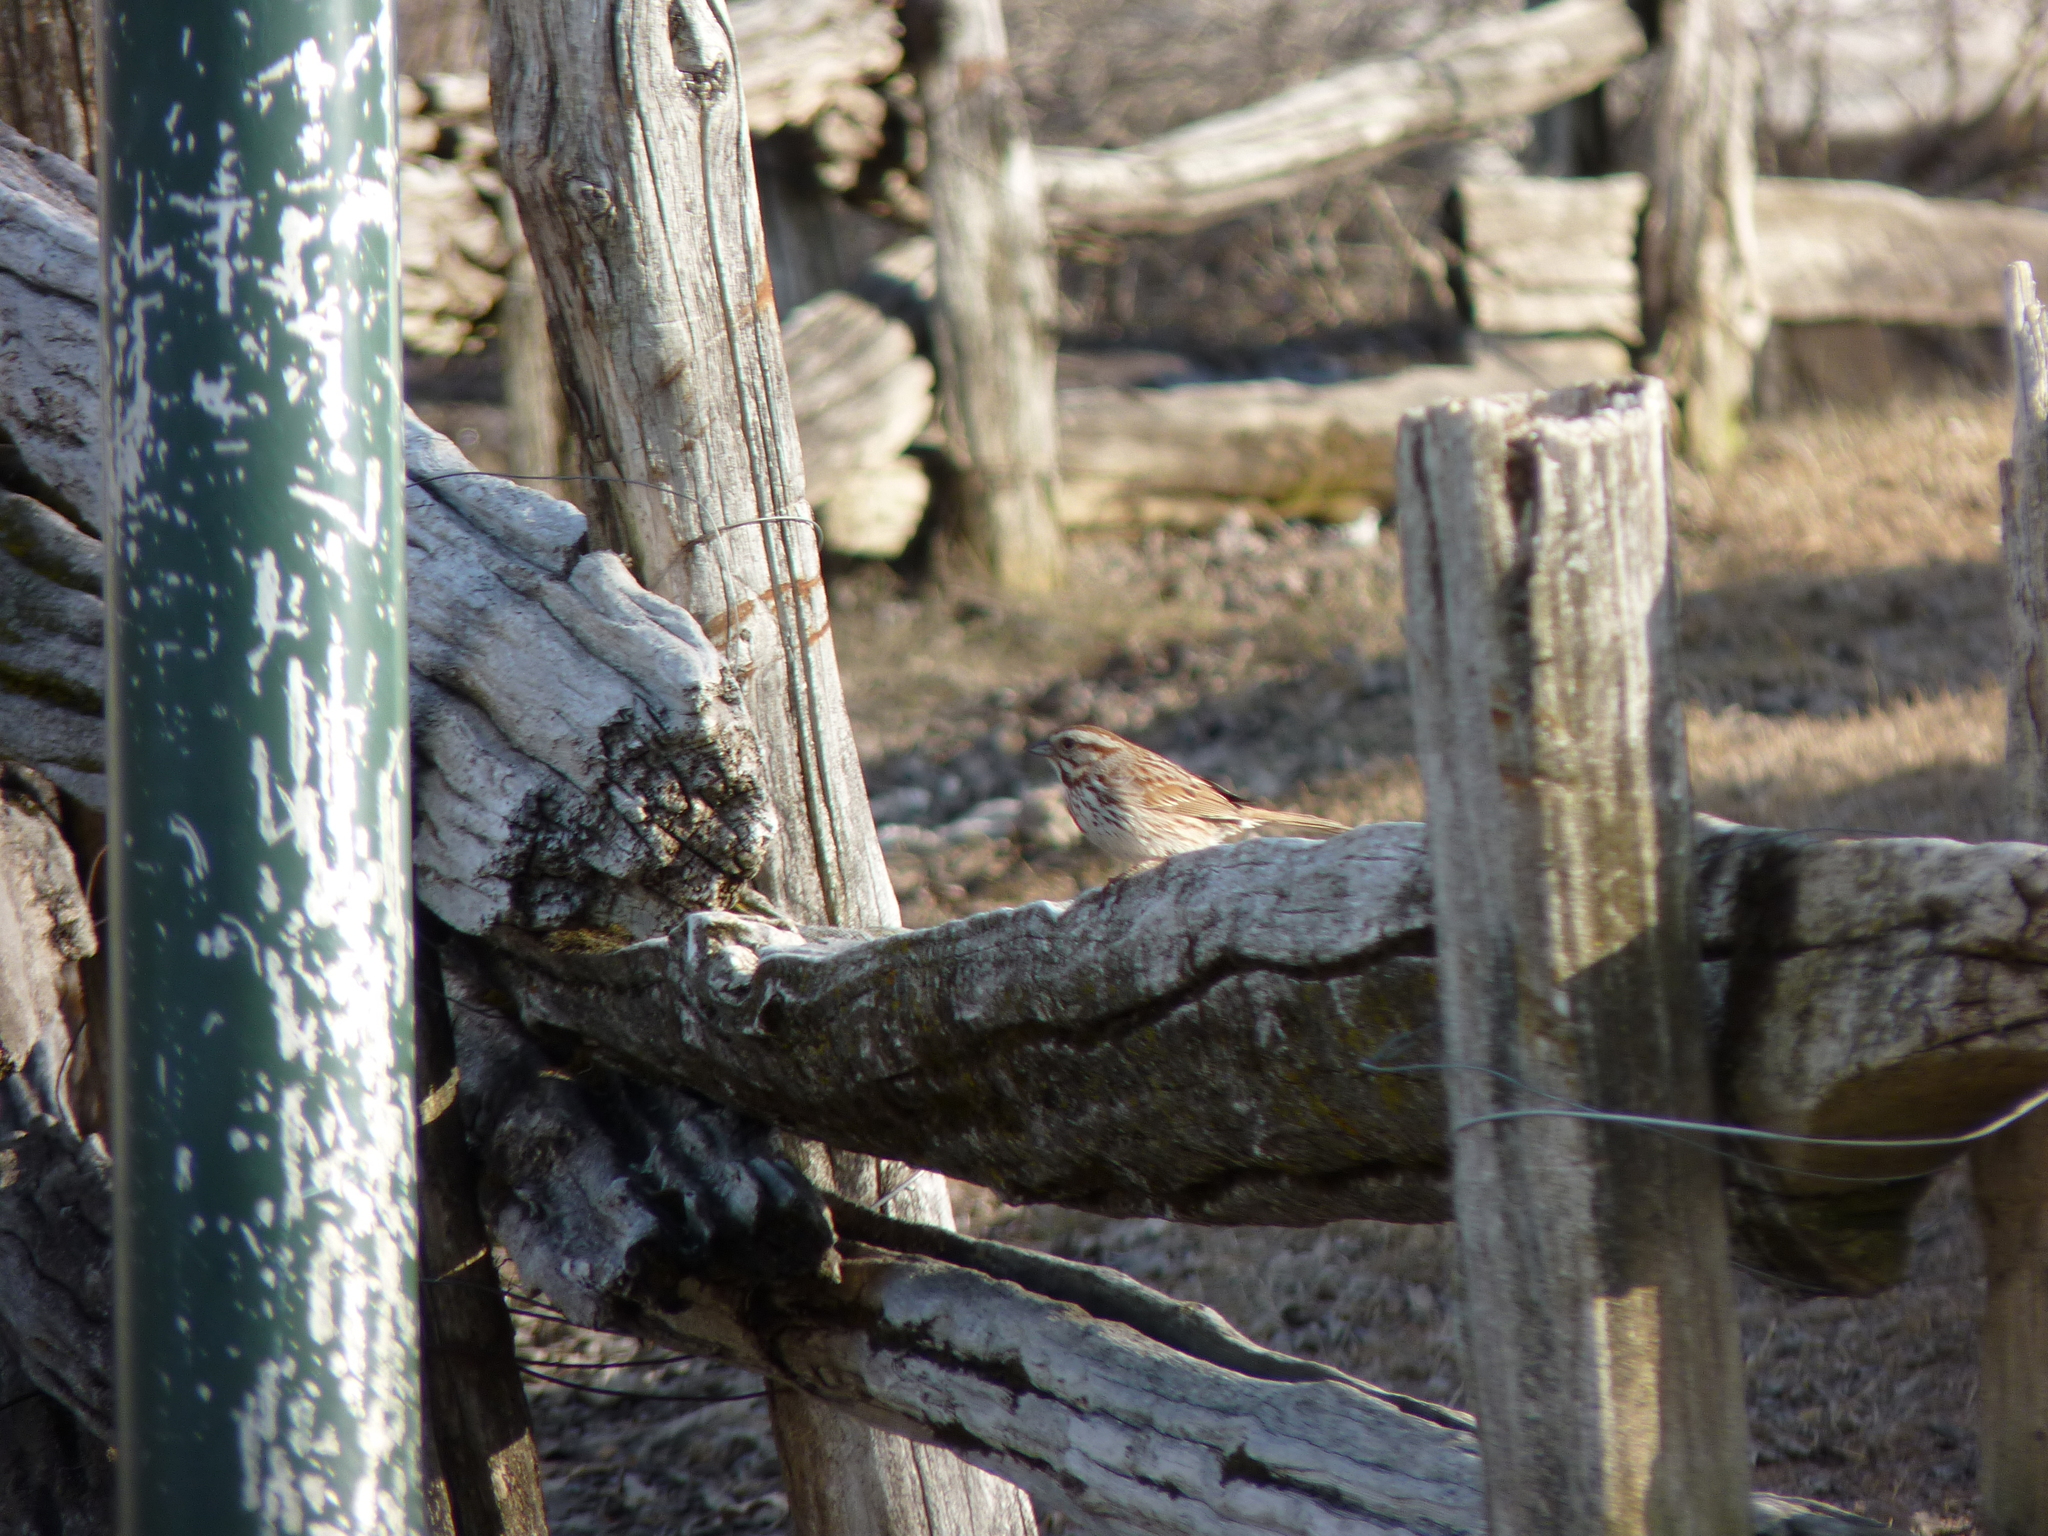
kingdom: Animalia
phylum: Chordata
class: Aves
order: Passeriformes
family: Passerellidae
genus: Melospiza
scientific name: Melospiza melodia
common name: Song sparrow
